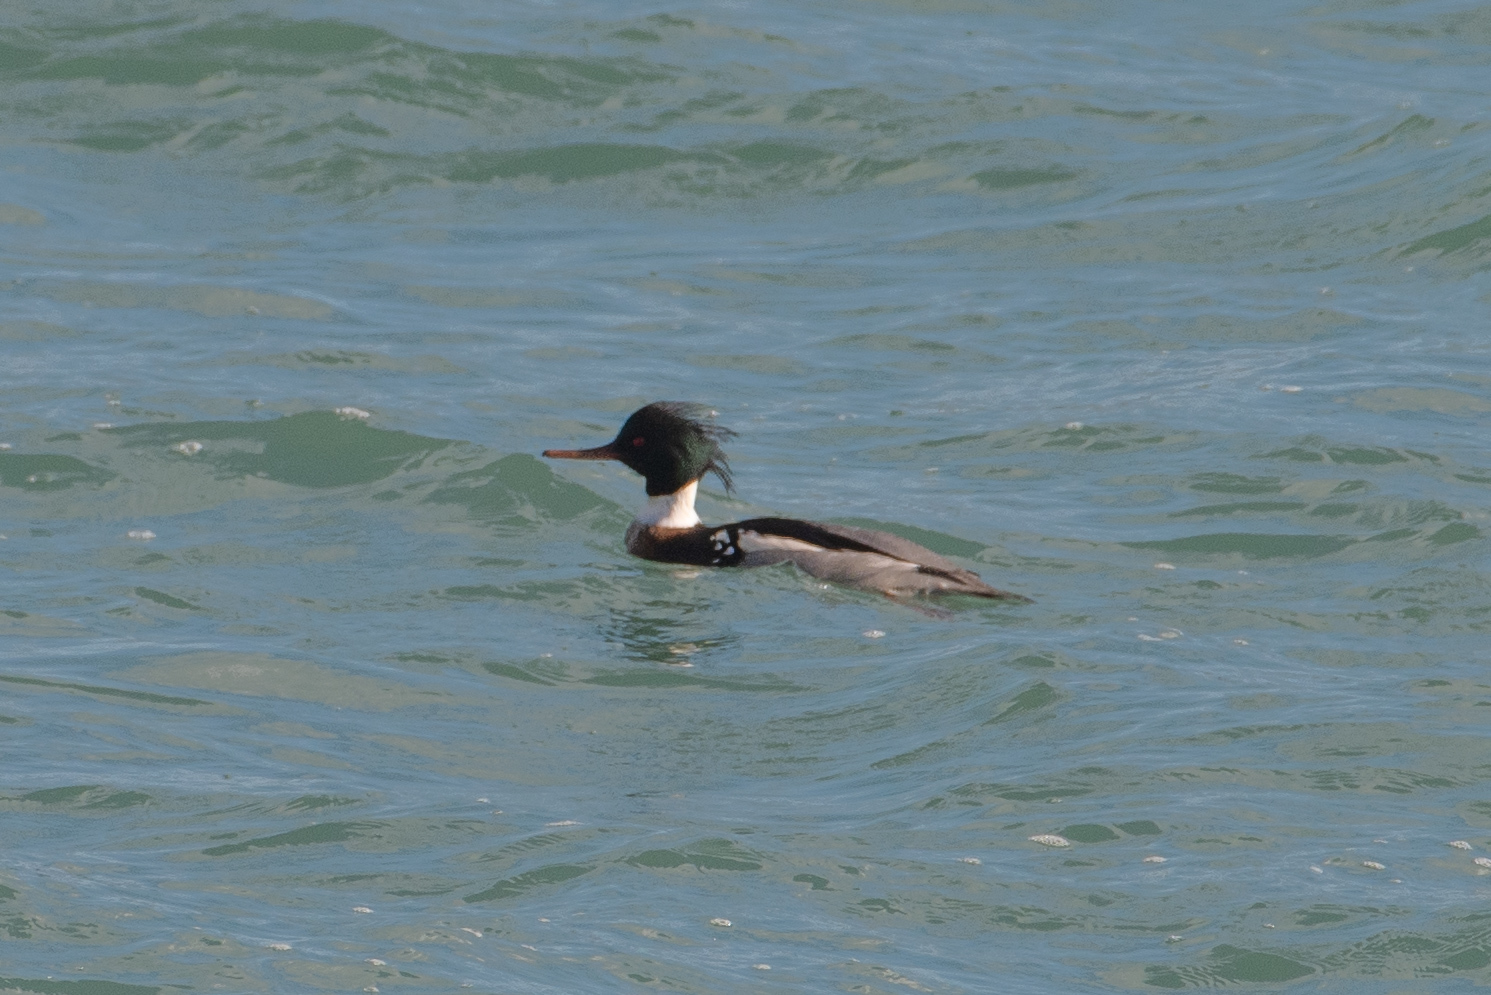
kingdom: Animalia
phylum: Chordata
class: Aves
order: Anseriformes
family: Anatidae
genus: Mergus
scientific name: Mergus serrator
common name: Red-breasted merganser
